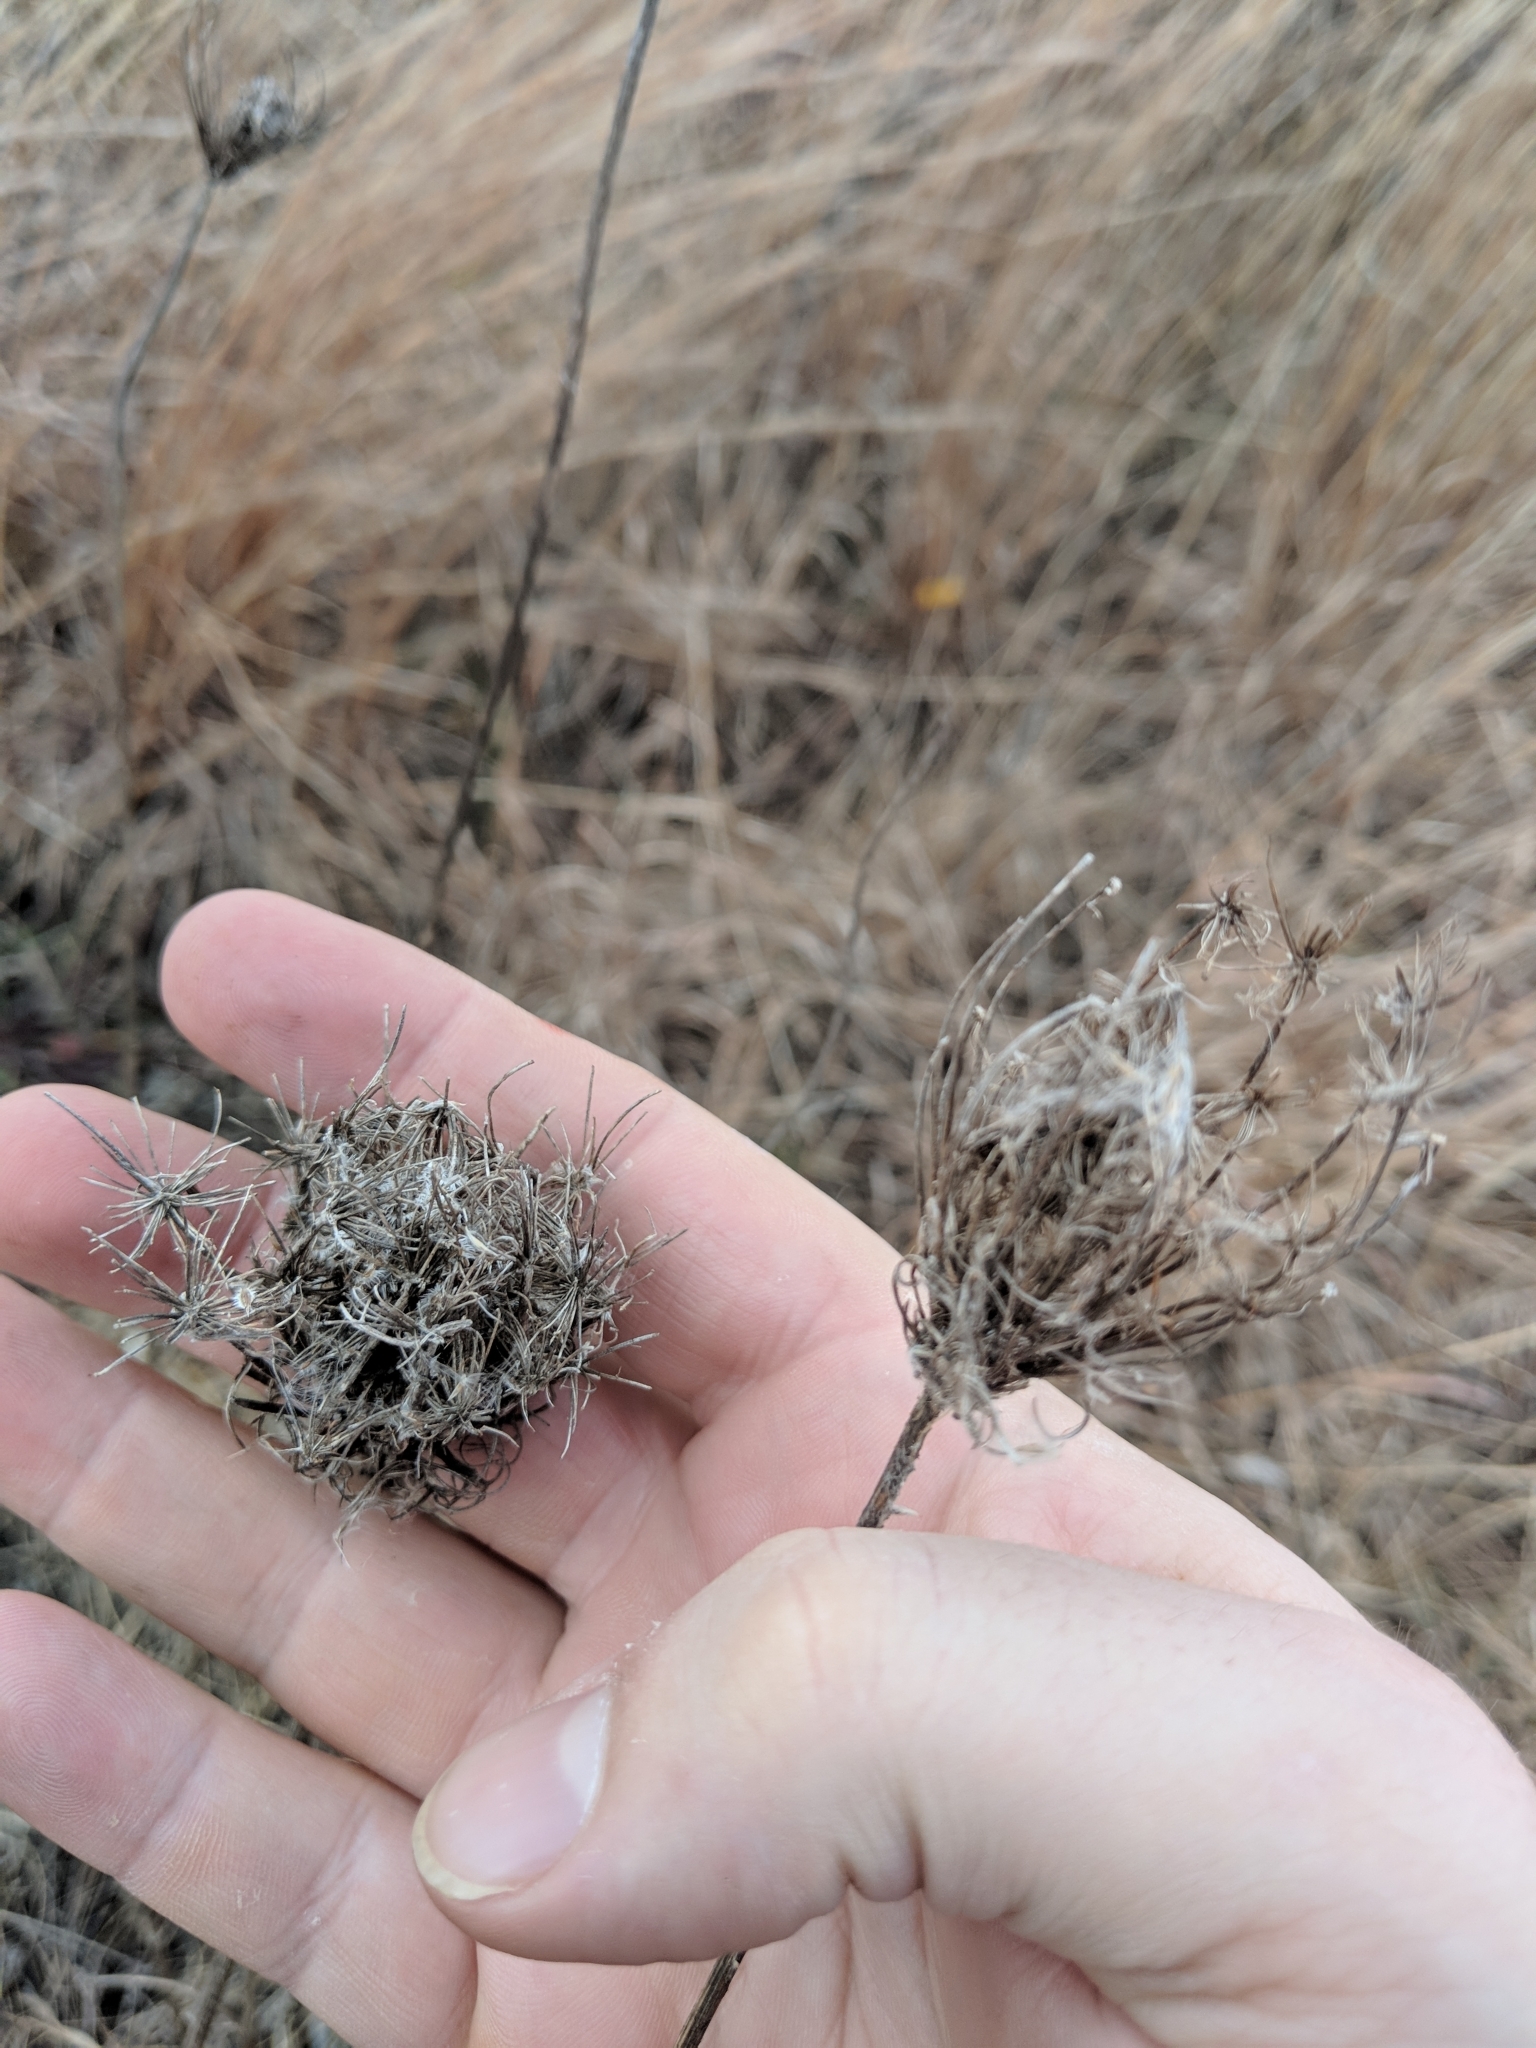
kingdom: Plantae
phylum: Tracheophyta
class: Magnoliopsida
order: Apiales
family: Apiaceae
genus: Daucus
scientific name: Daucus carota
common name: Wild carrot
